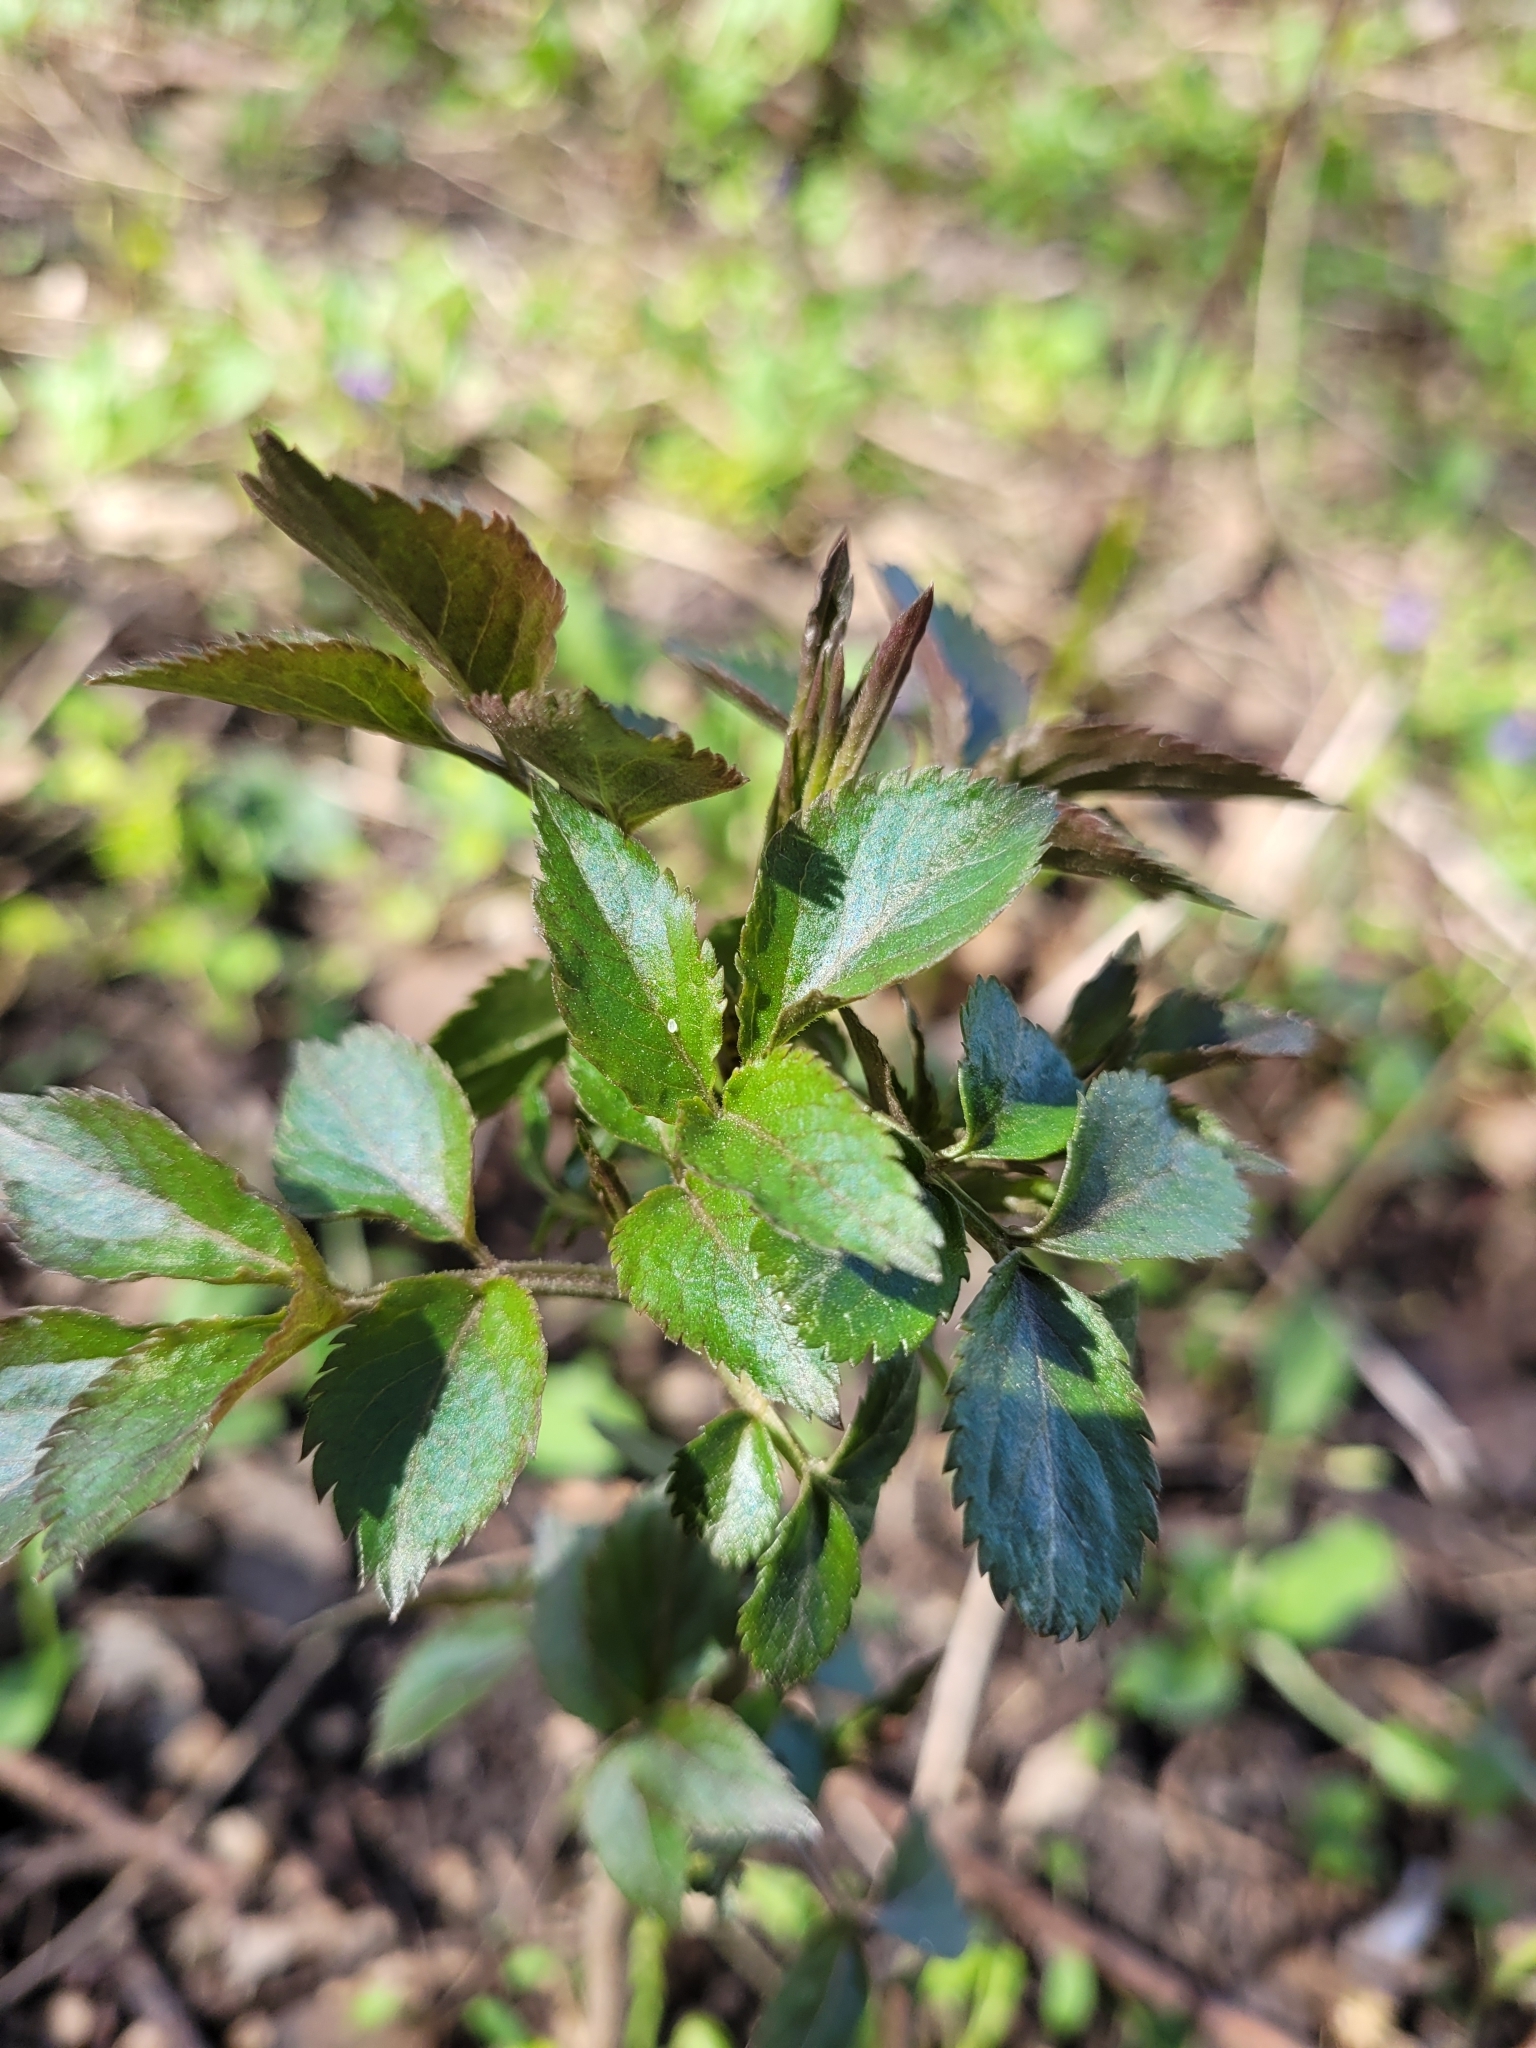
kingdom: Plantae
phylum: Tracheophyta
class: Magnoliopsida
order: Dipsacales
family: Viburnaceae
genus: Sambucus
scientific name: Sambucus nigra
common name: Elder
